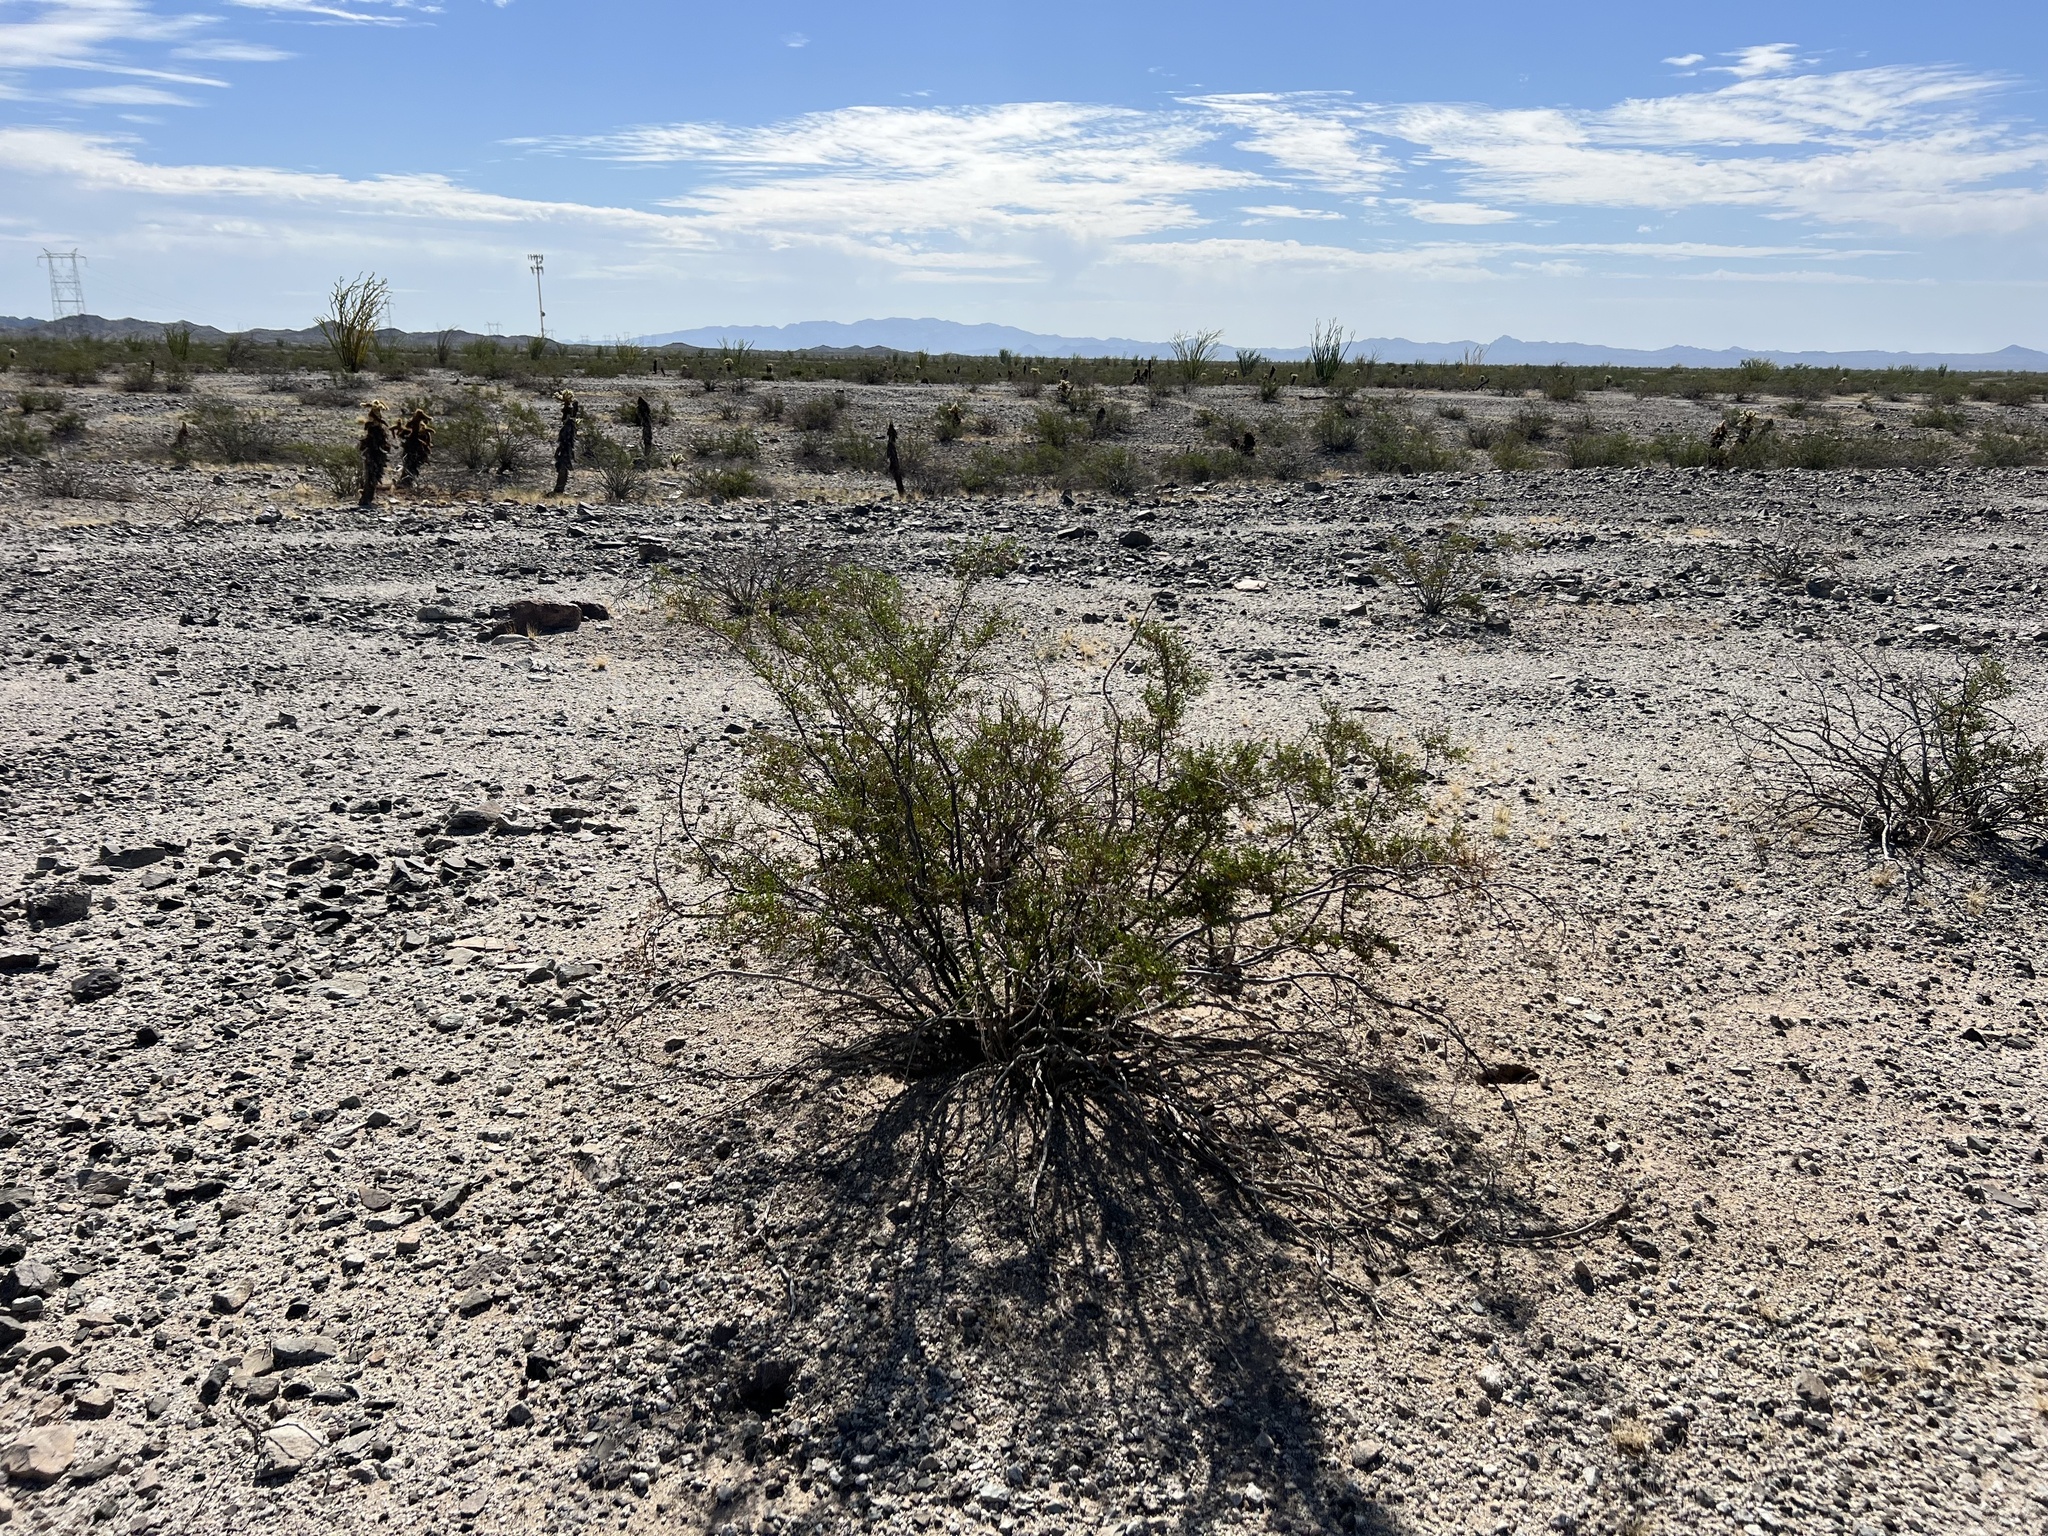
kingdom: Plantae
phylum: Tracheophyta
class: Magnoliopsida
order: Zygophyllales
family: Zygophyllaceae
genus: Larrea
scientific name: Larrea tridentata
